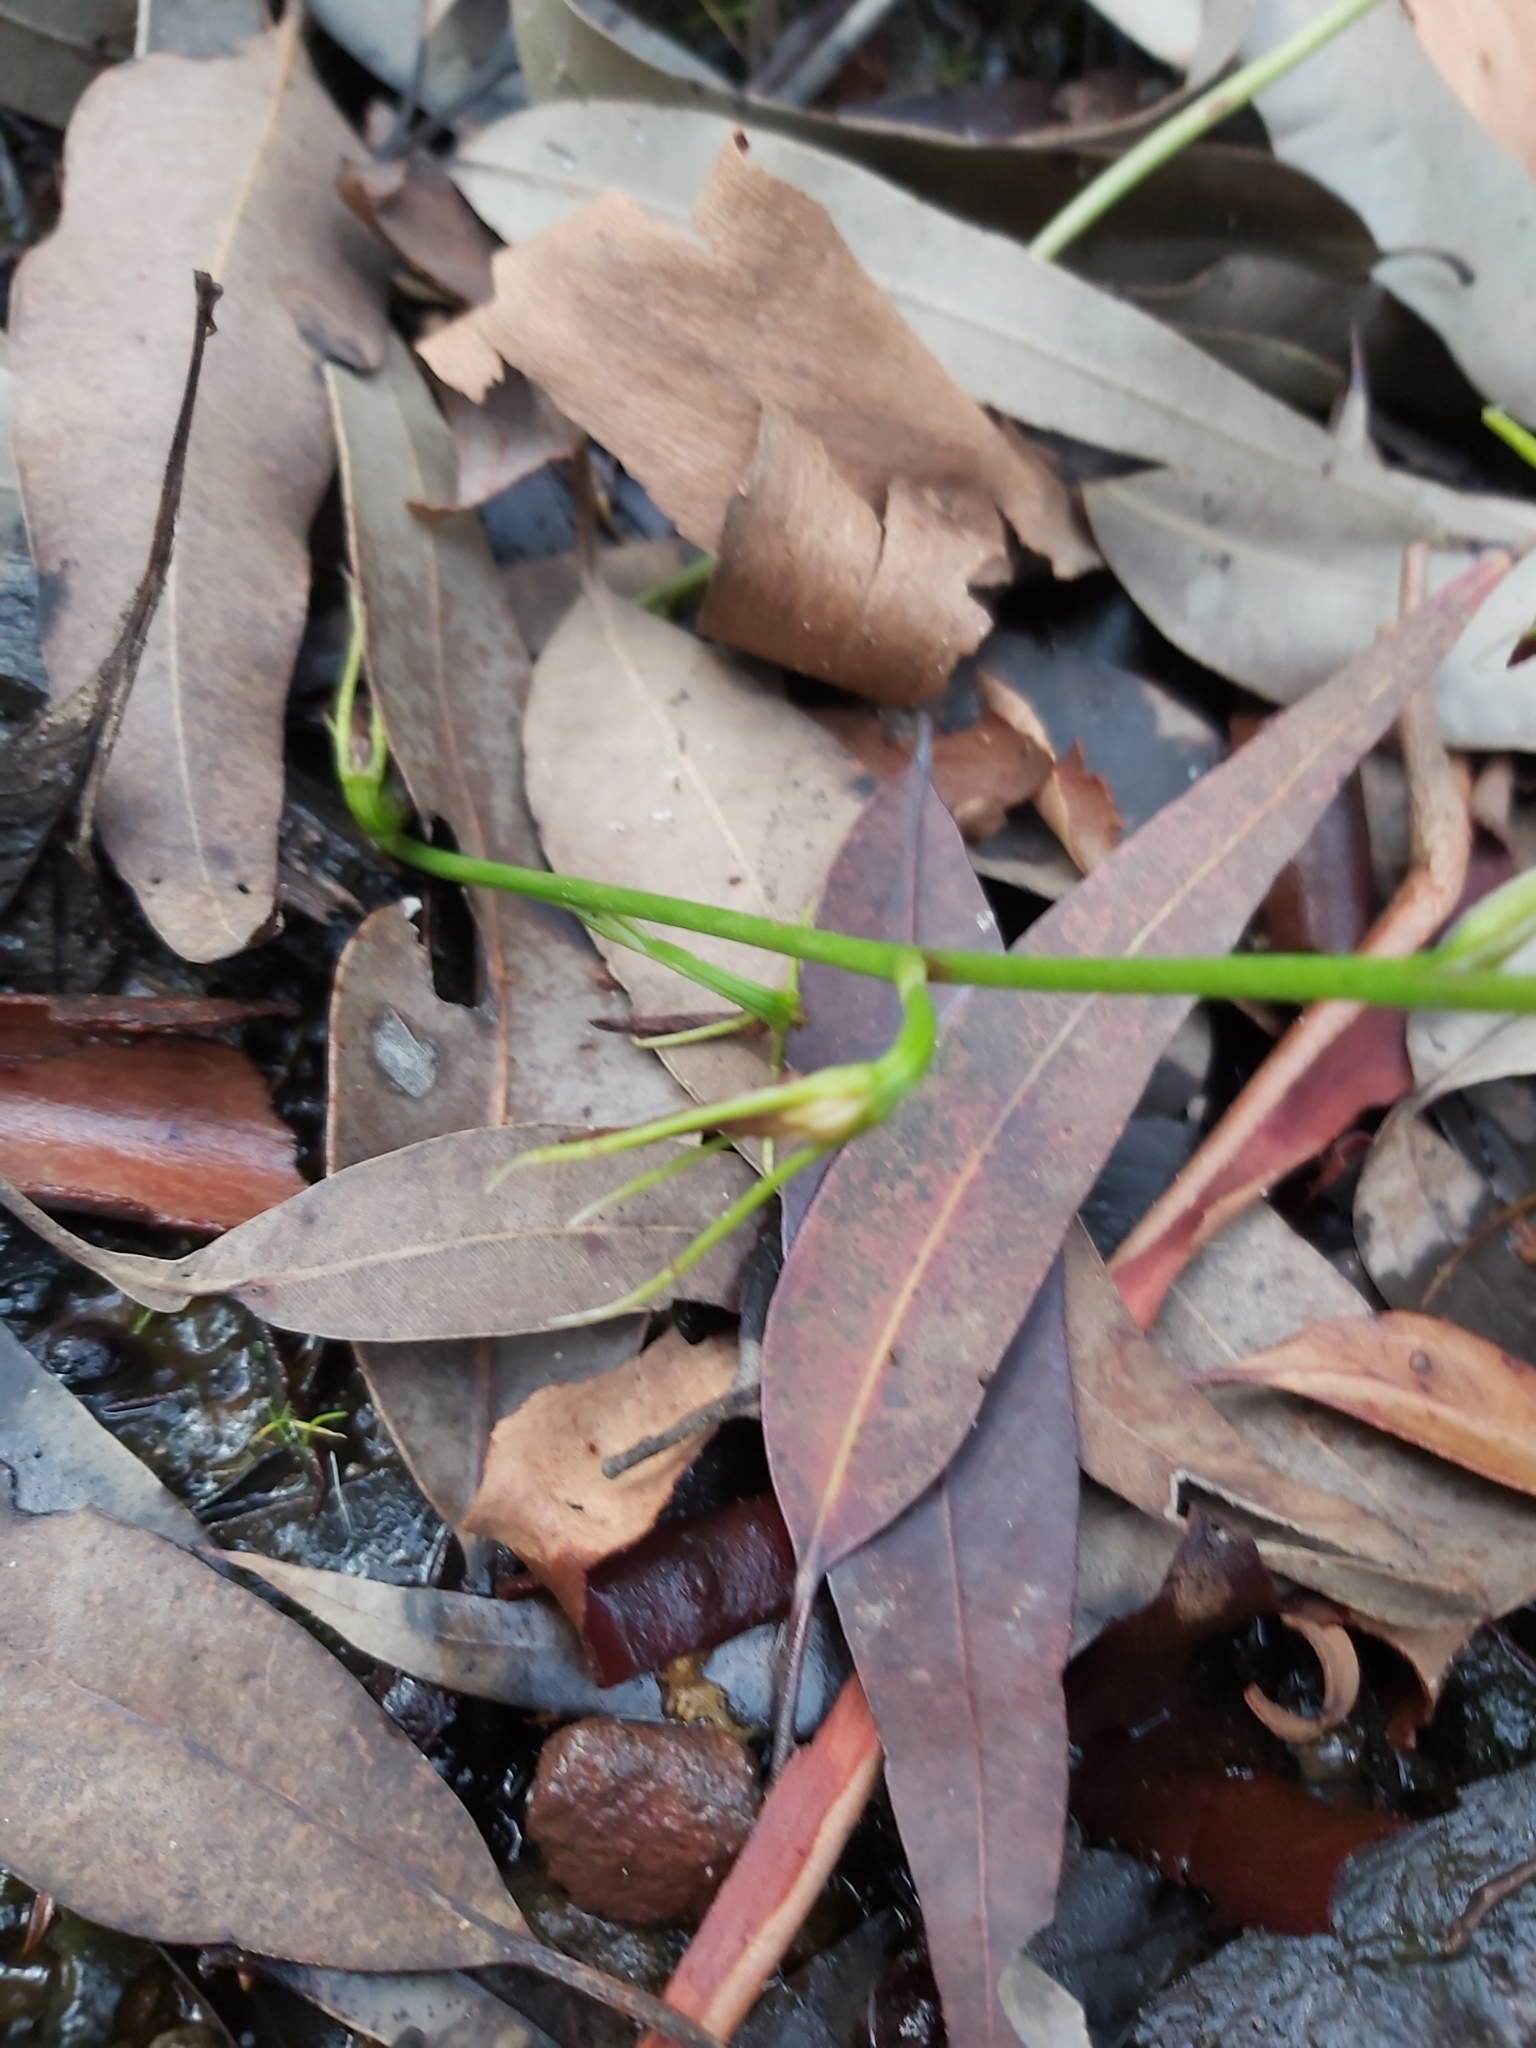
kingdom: Plantae
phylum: Tracheophyta
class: Liliopsida
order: Asparagales
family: Orchidaceae
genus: Cryptostylis
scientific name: Cryptostylis subulata
